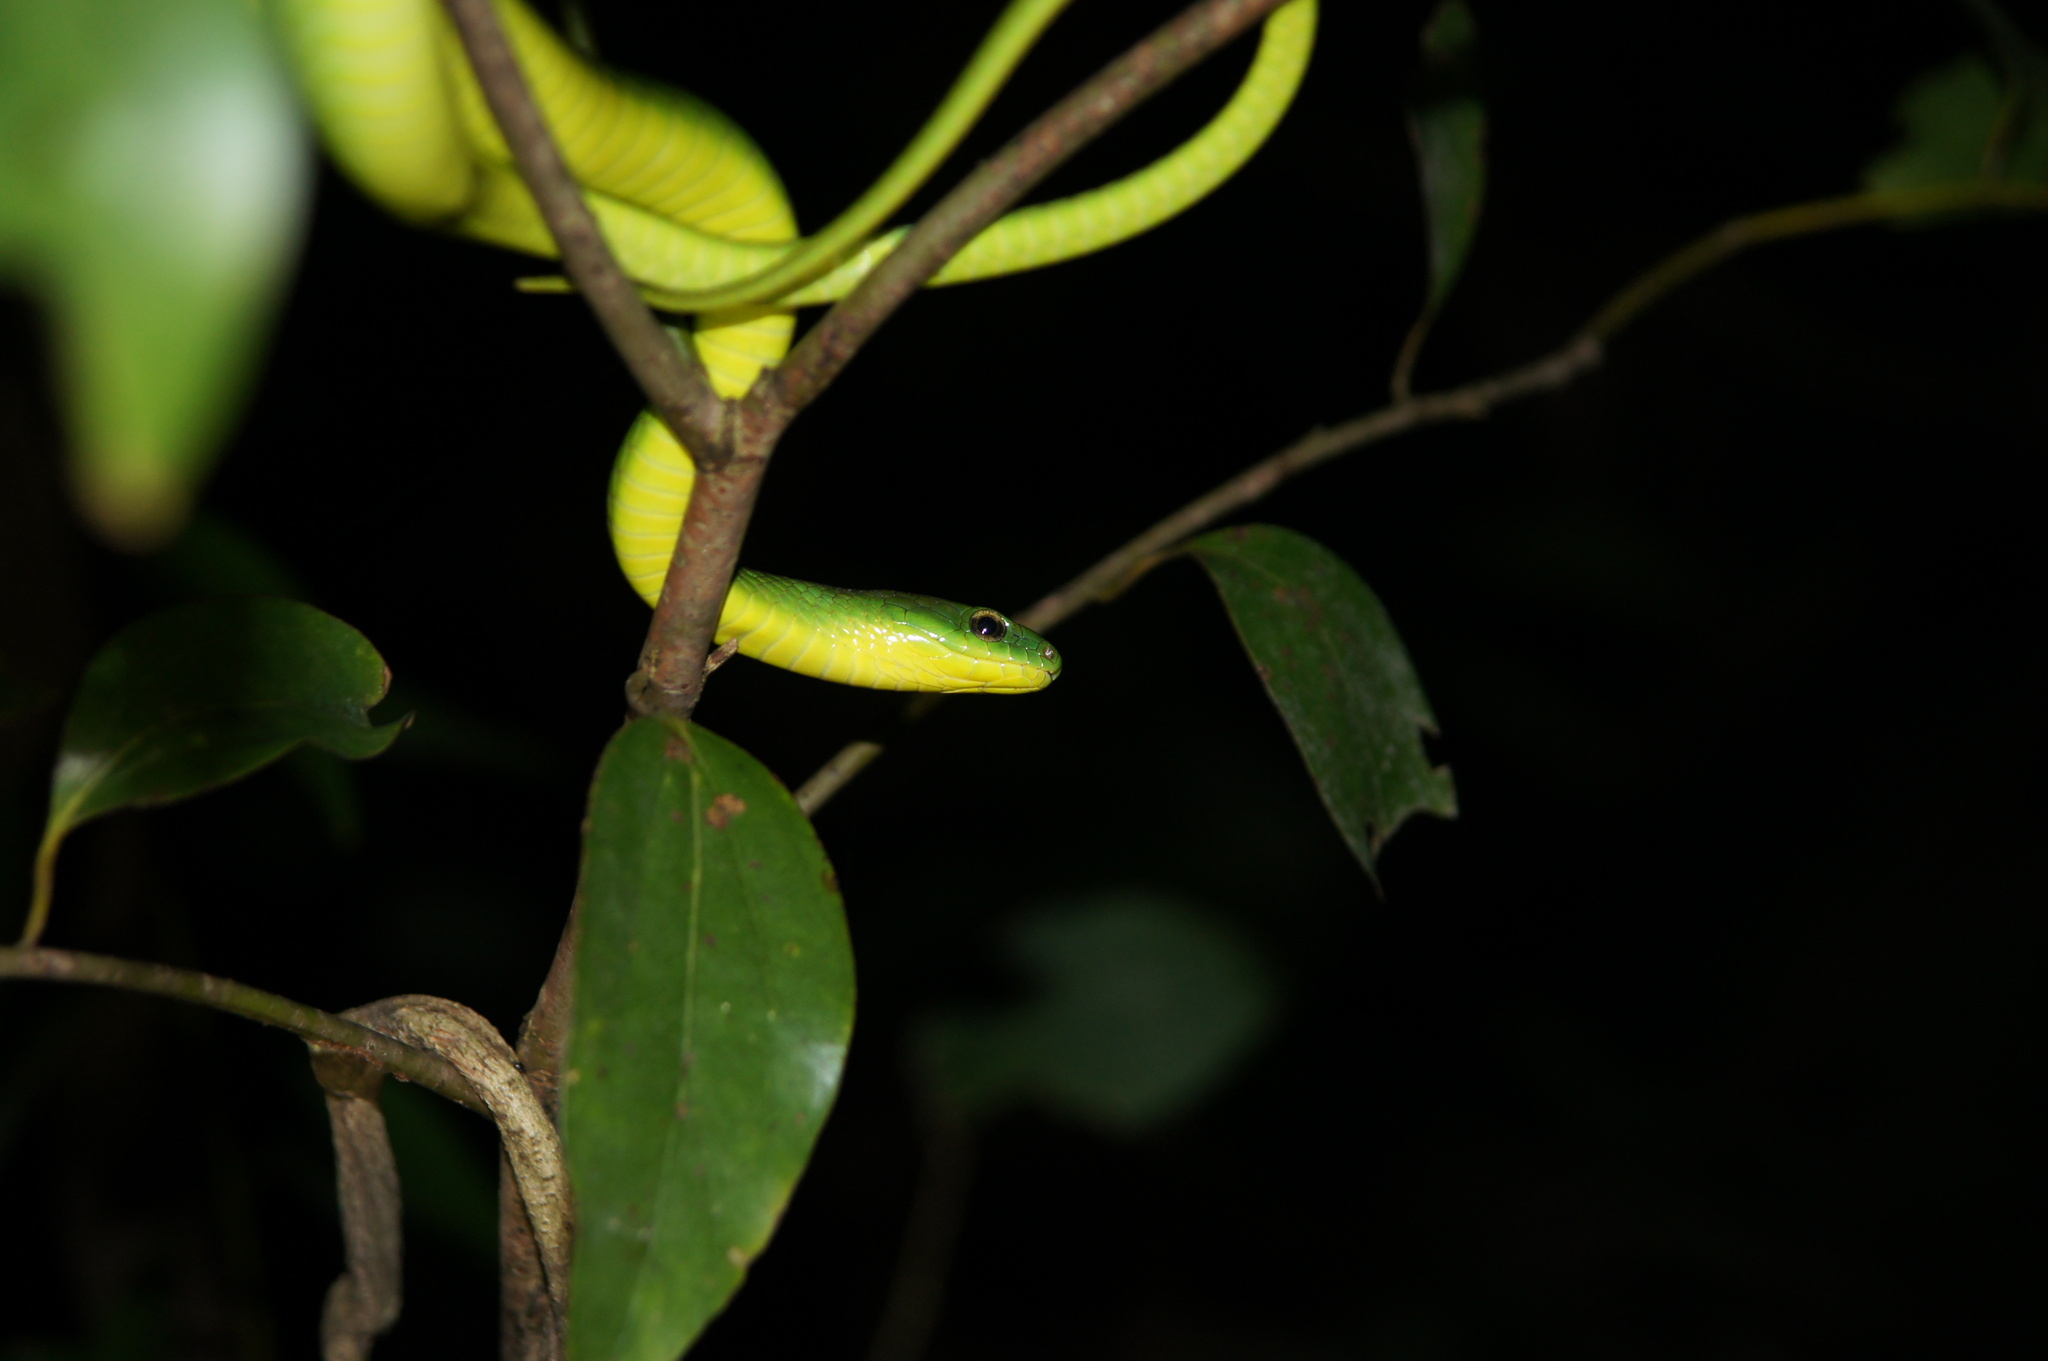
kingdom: Animalia
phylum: Chordata
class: Squamata
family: Colubridae
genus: Ptyas
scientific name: Ptyas major
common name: Chinese green snake
